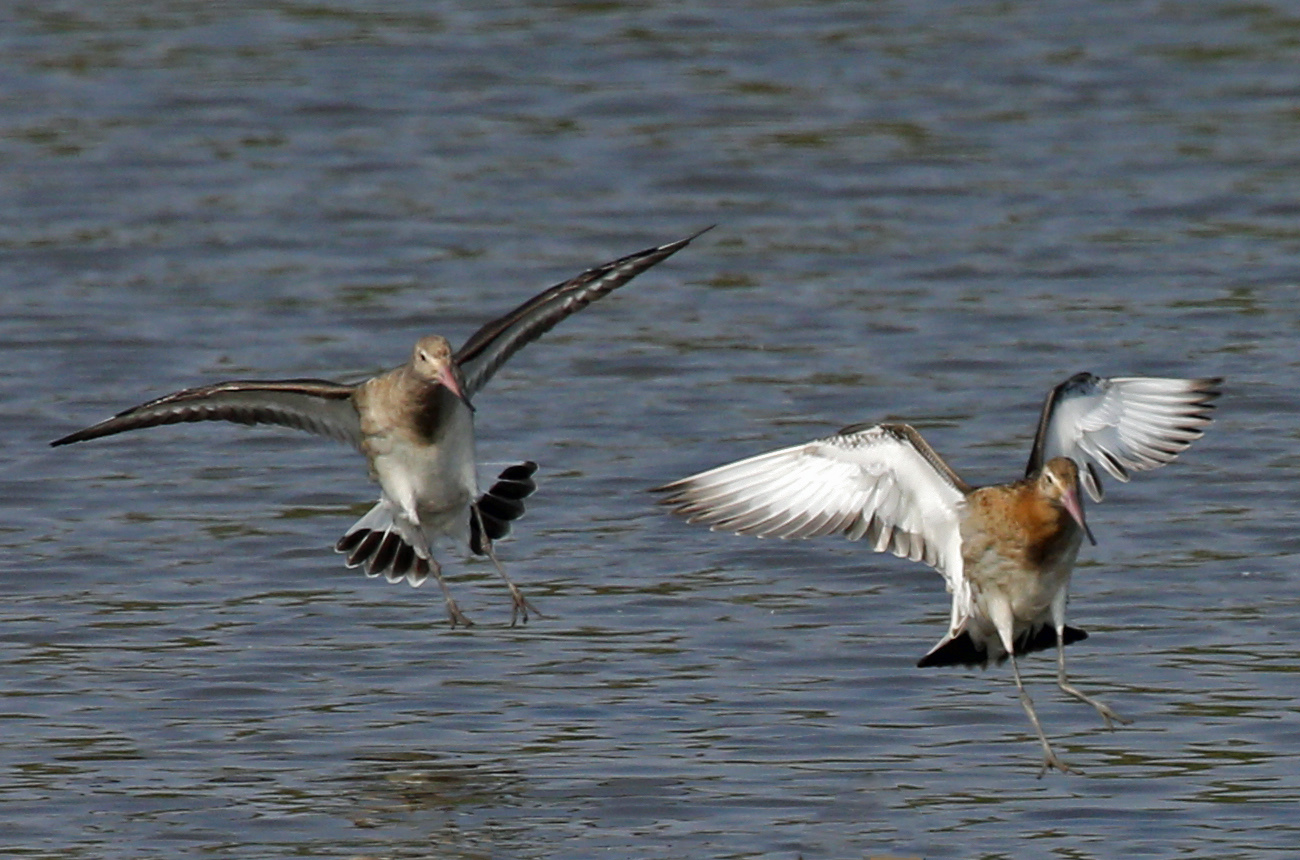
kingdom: Animalia
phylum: Chordata
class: Aves
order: Charadriiformes
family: Scolopacidae
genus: Limosa
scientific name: Limosa limosa
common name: Black-tailed godwit
